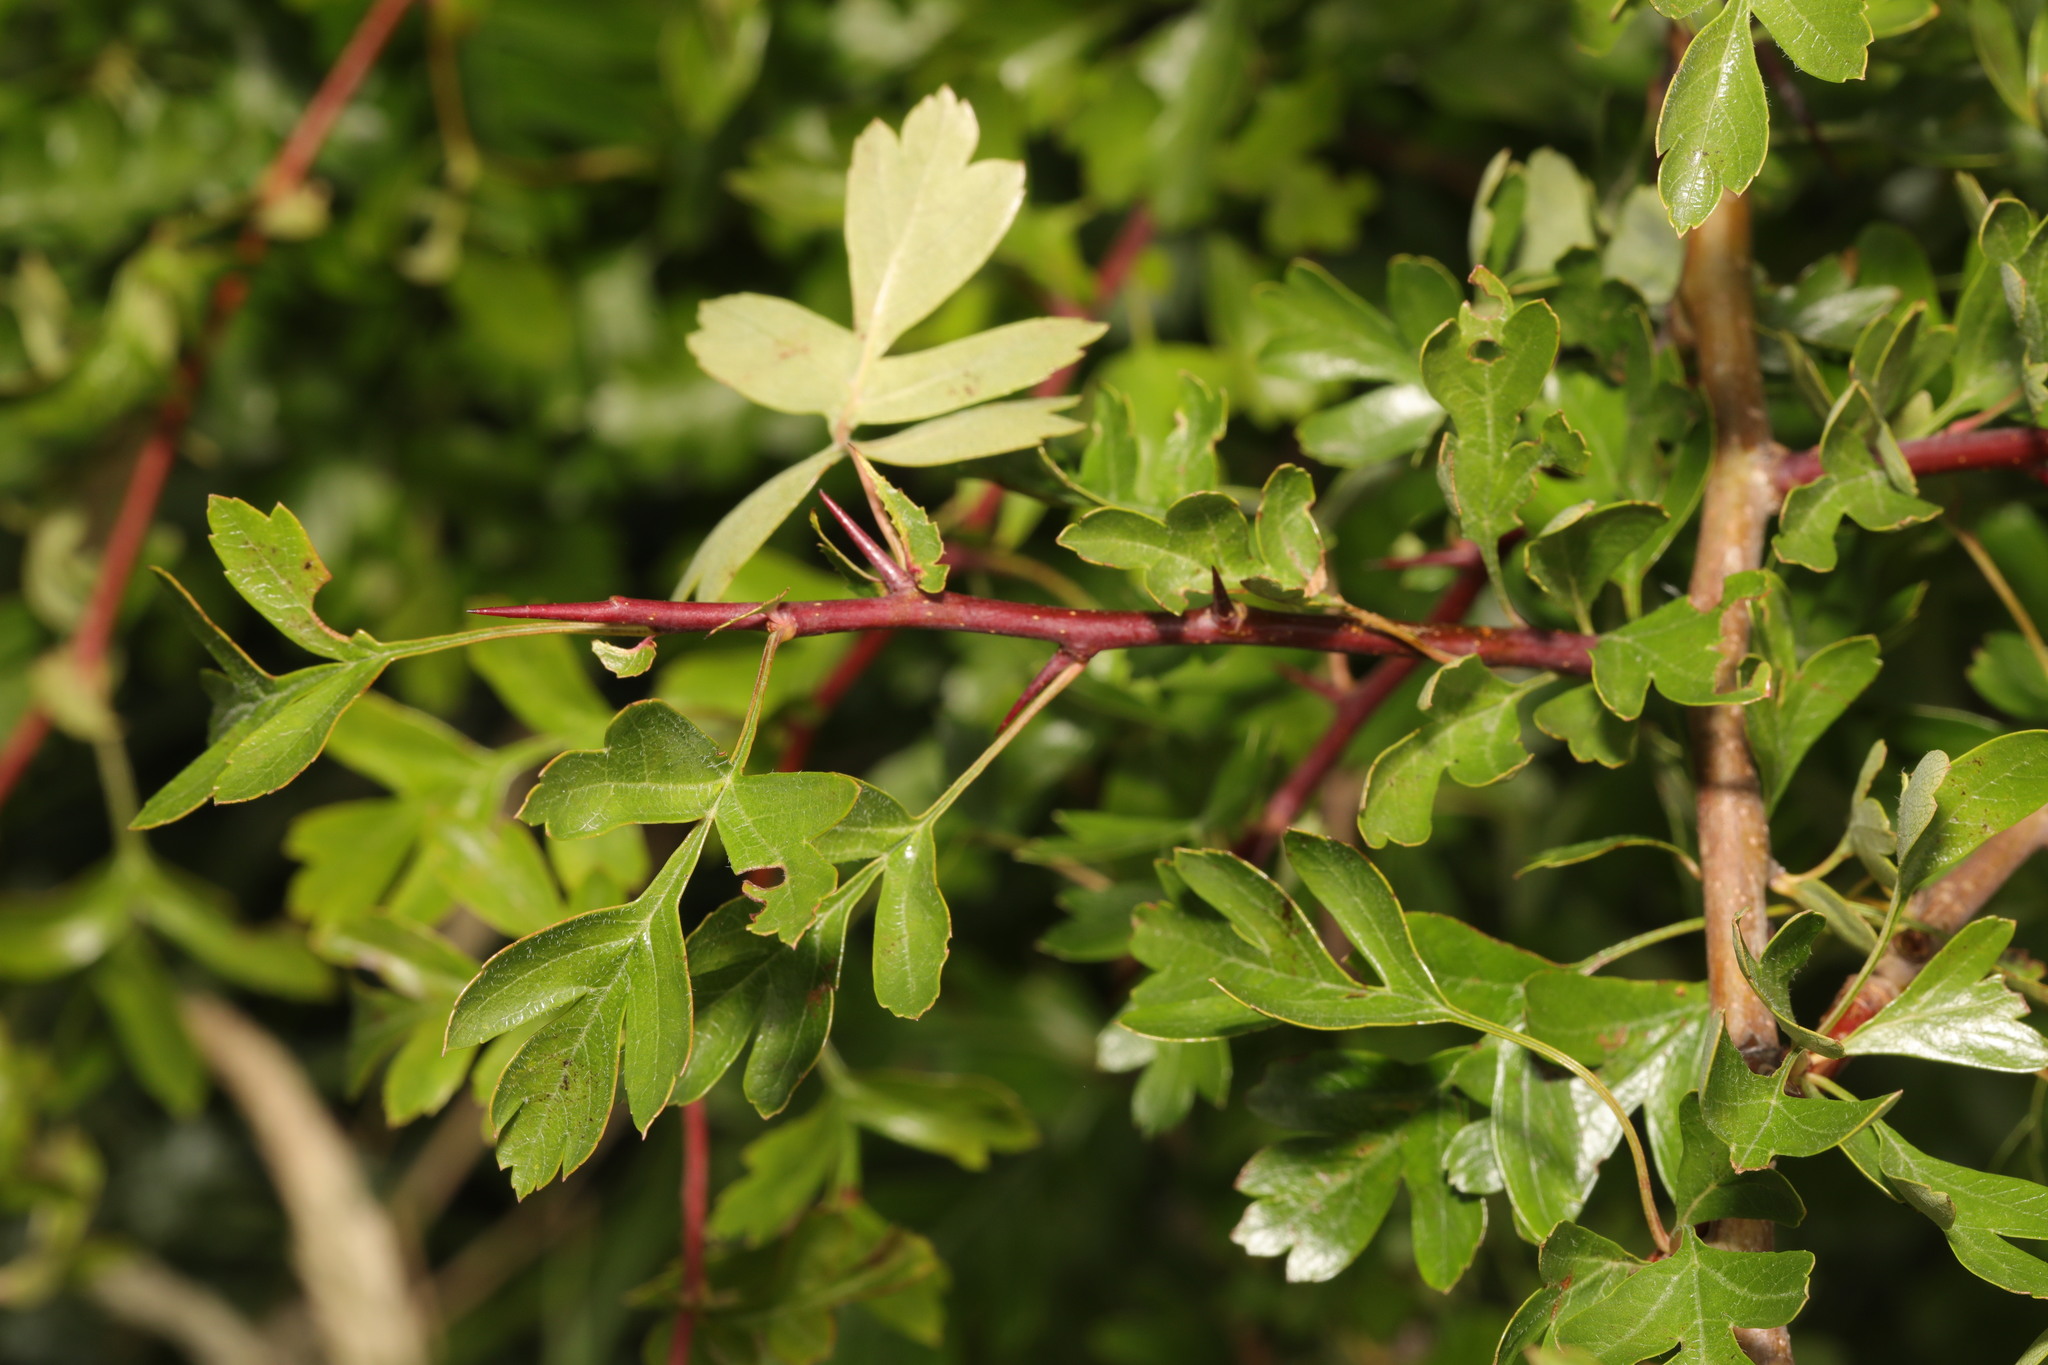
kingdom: Plantae
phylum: Tracheophyta
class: Magnoliopsida
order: Rosales
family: Rosaceae
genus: Crataegus
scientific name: Crataegus monogyna
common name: Hawthorn
